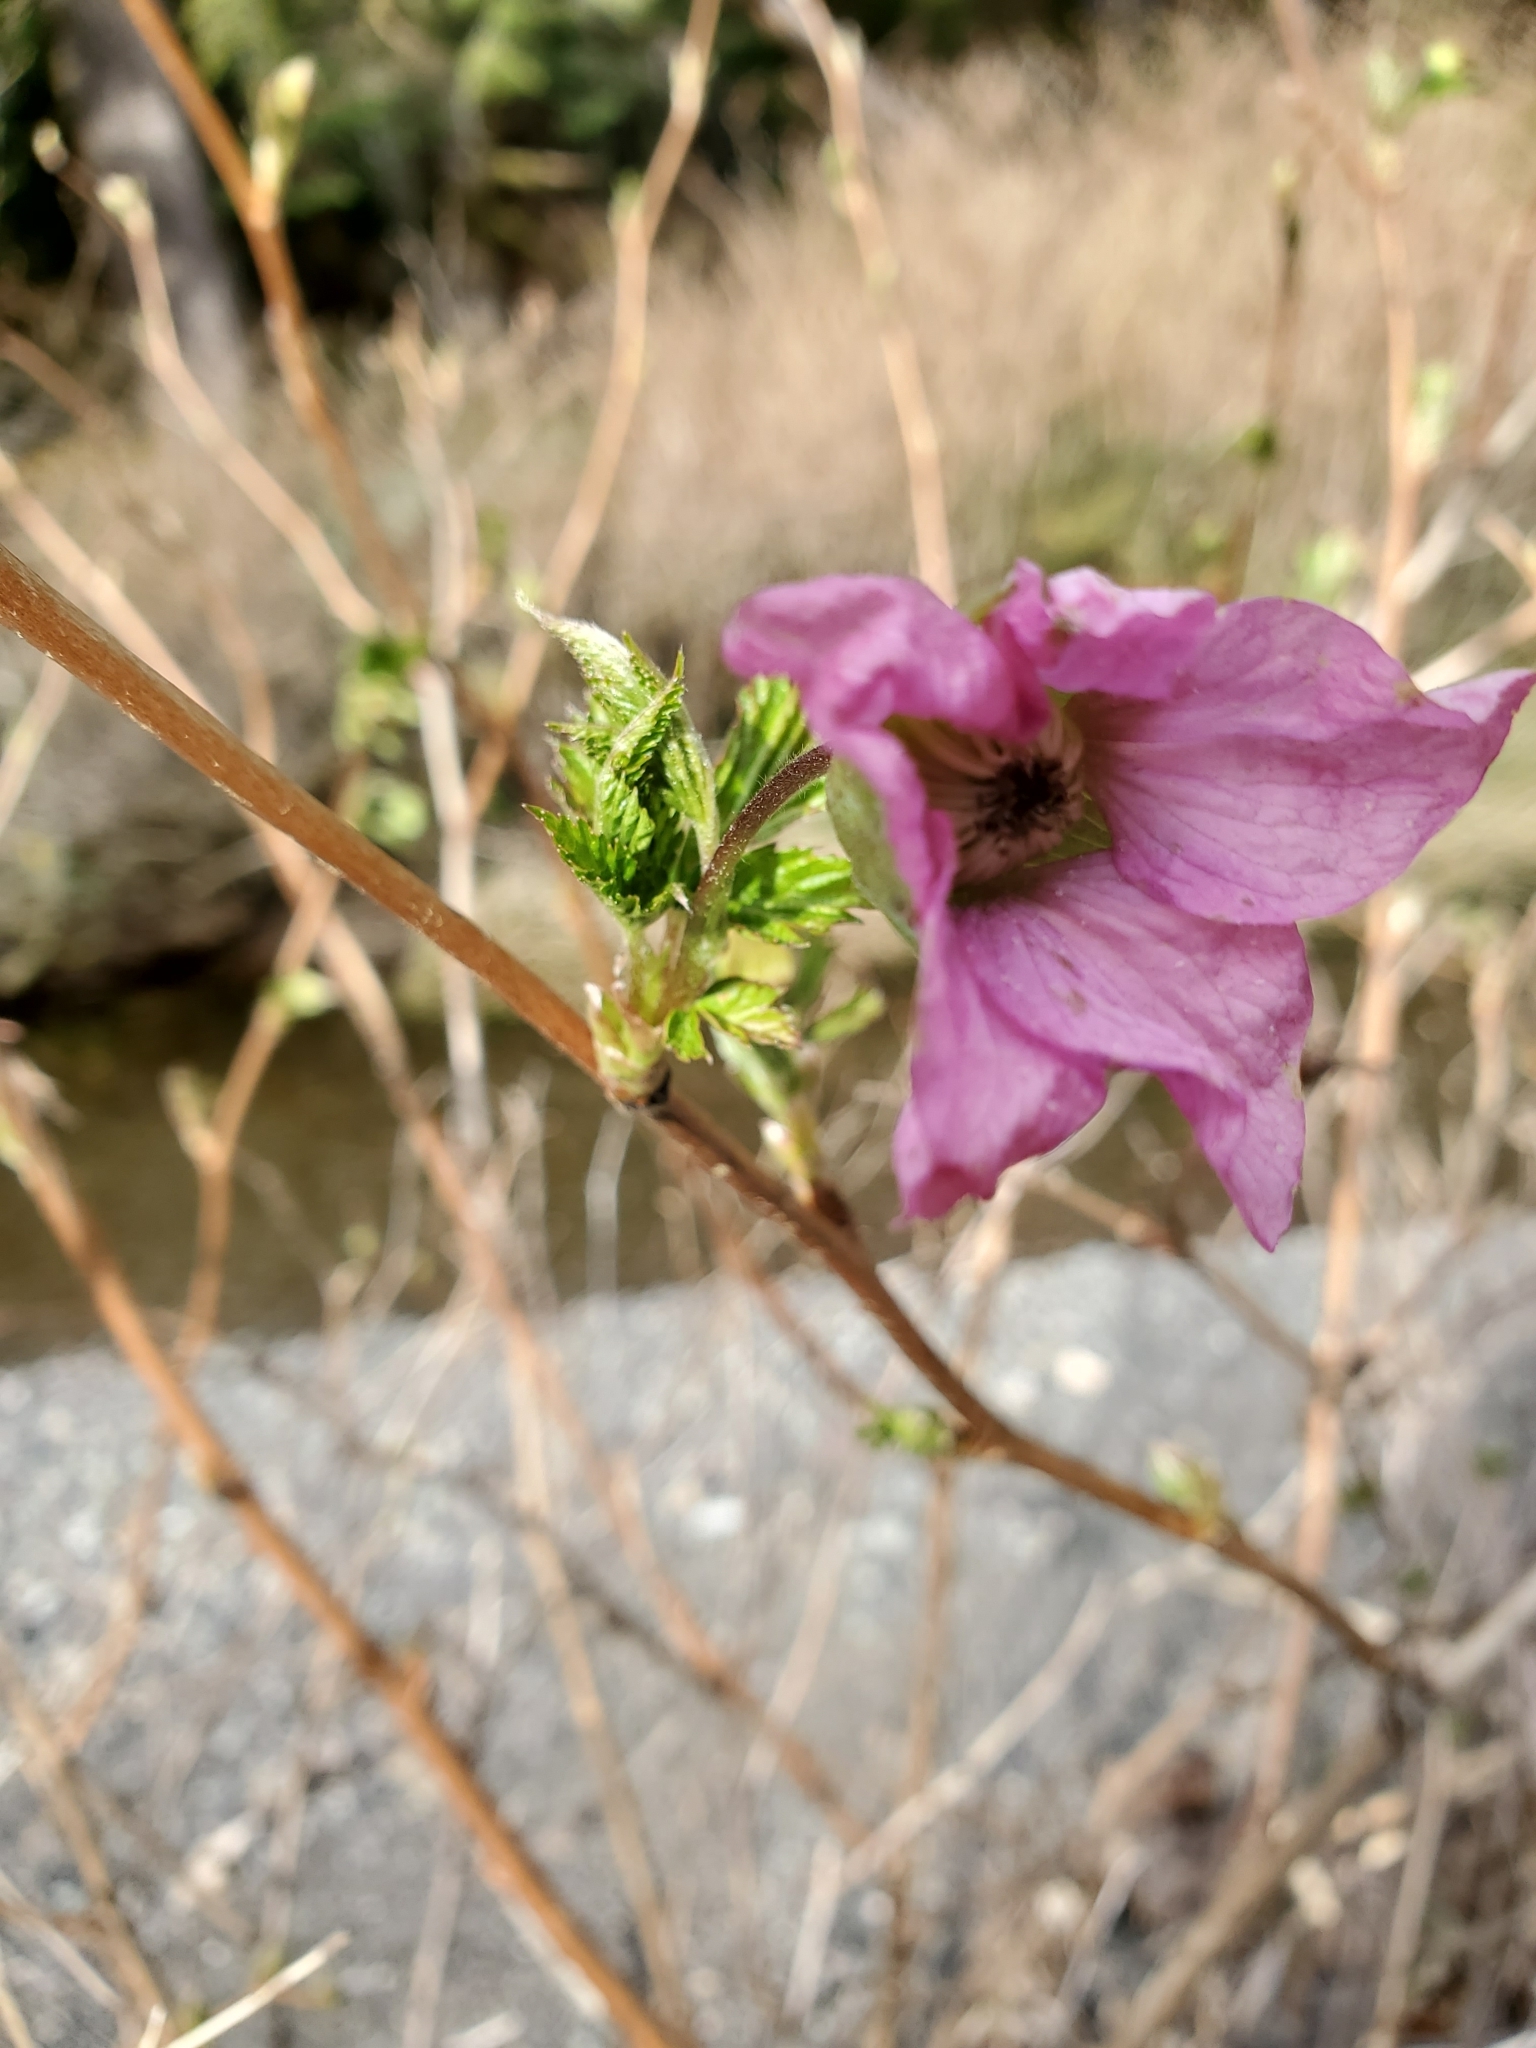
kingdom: Plantae
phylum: Tracheophyta
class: Magnoliopsida
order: Rosales
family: Rosaceae
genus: Rubus
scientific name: Rubus spectabilis
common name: Salmonberry
